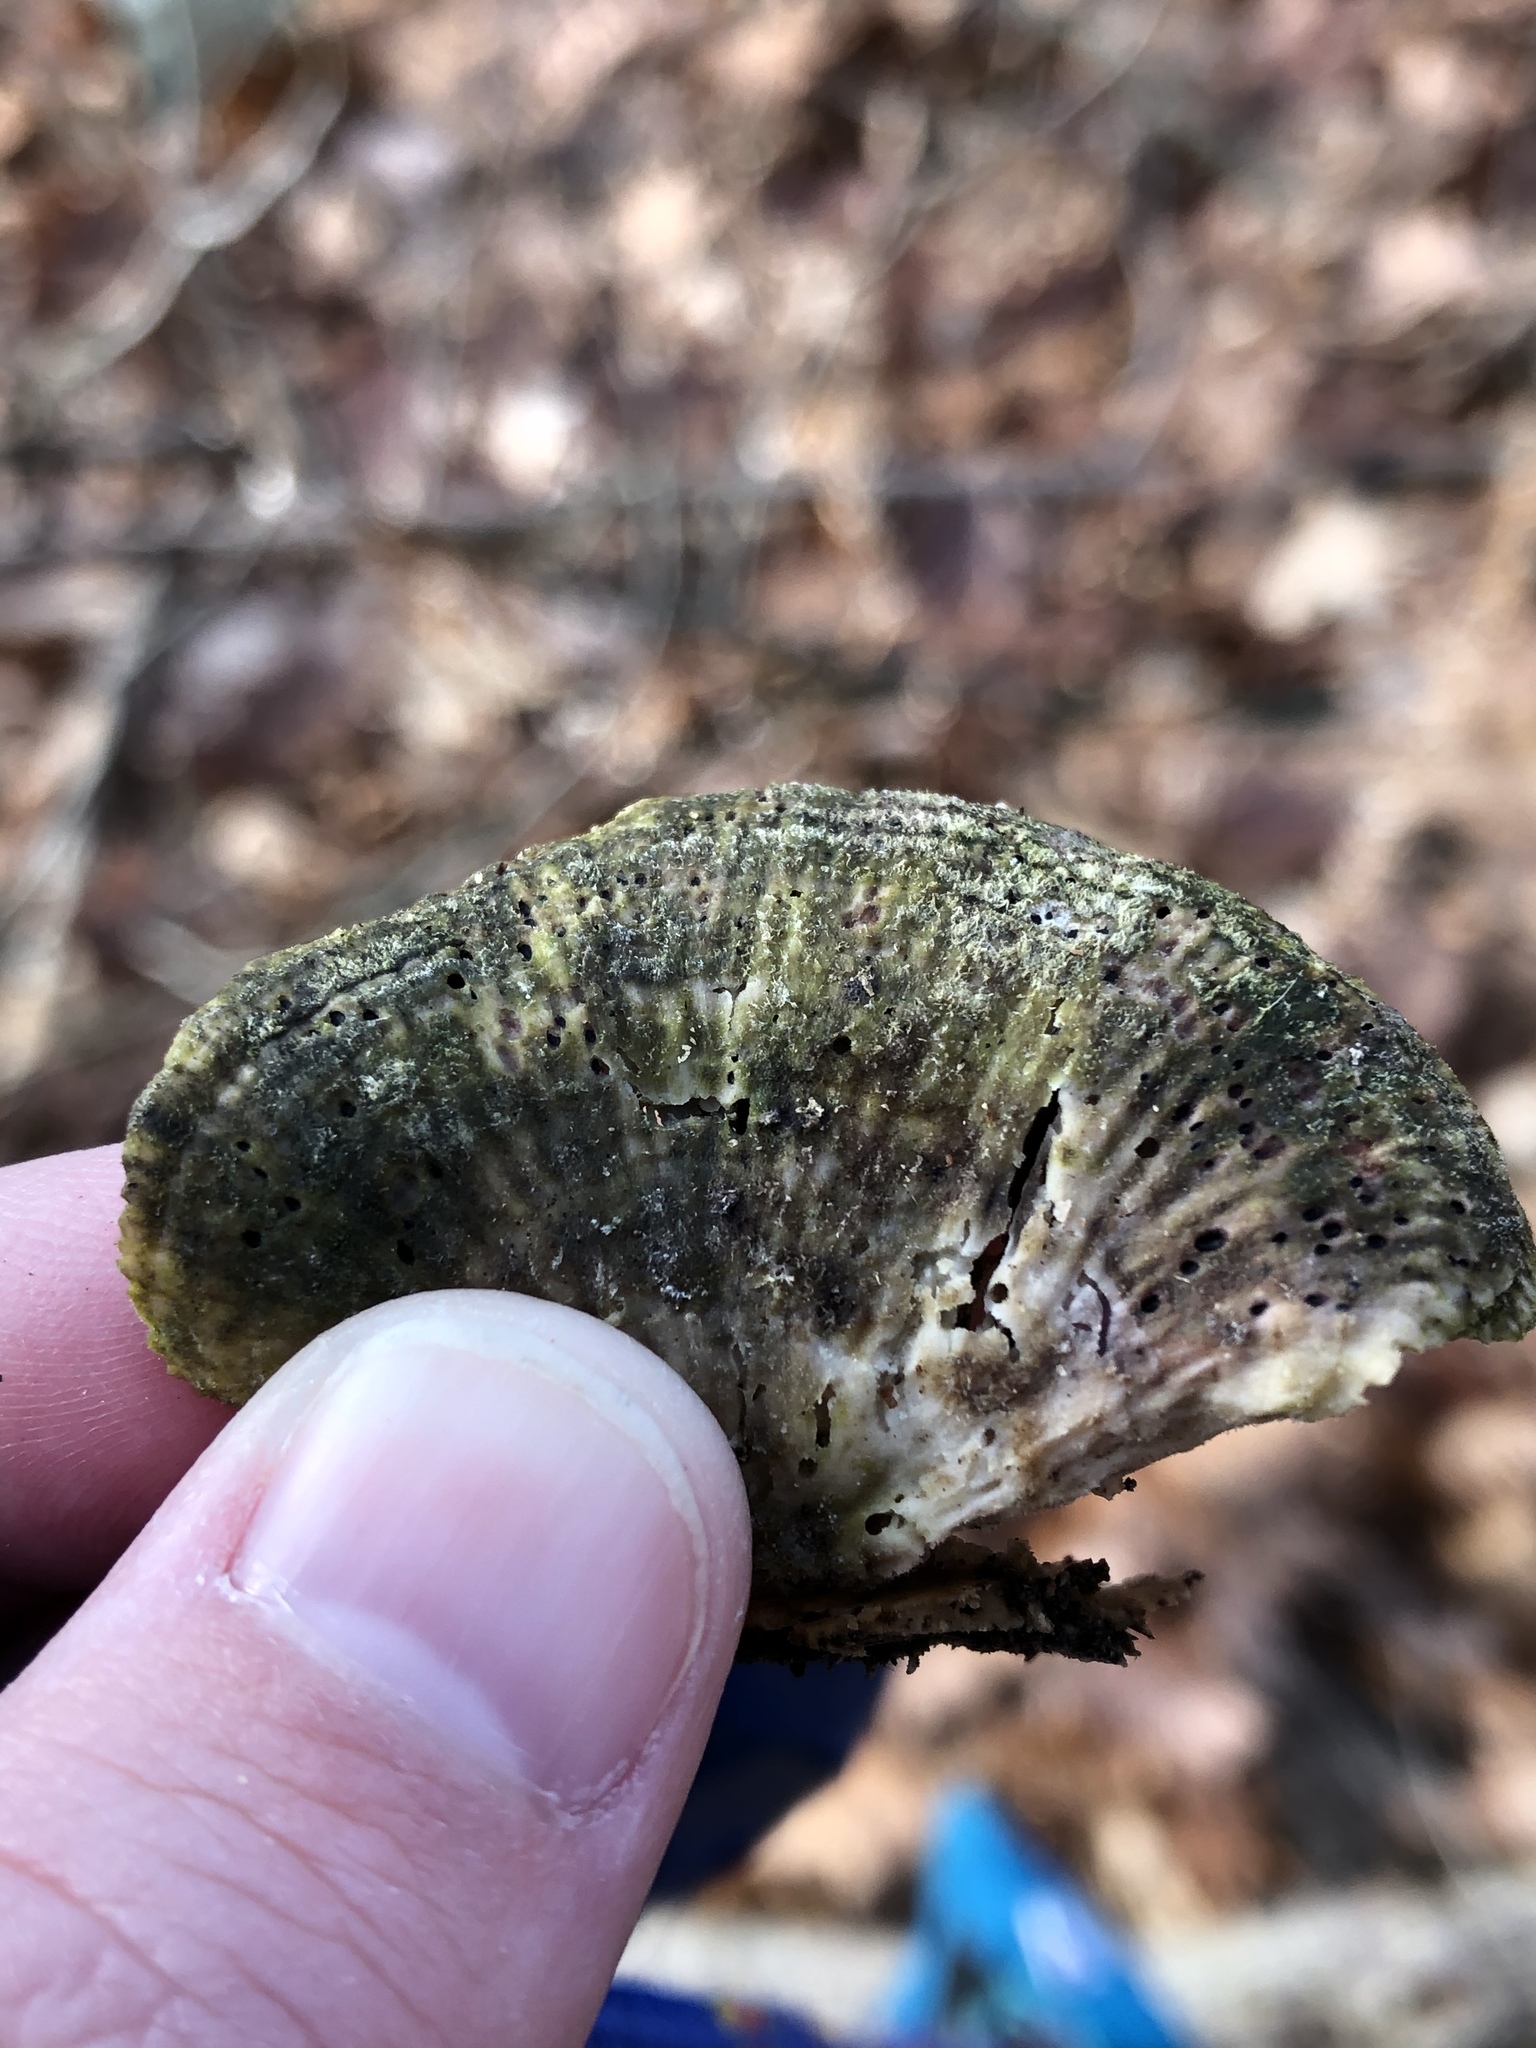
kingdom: Fungi
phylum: Basidiomycota
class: Agaricomycetes
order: Polyporales
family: Polyporaceae
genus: Lenzites
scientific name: Lenzites betulinus
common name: Birch mazegill
